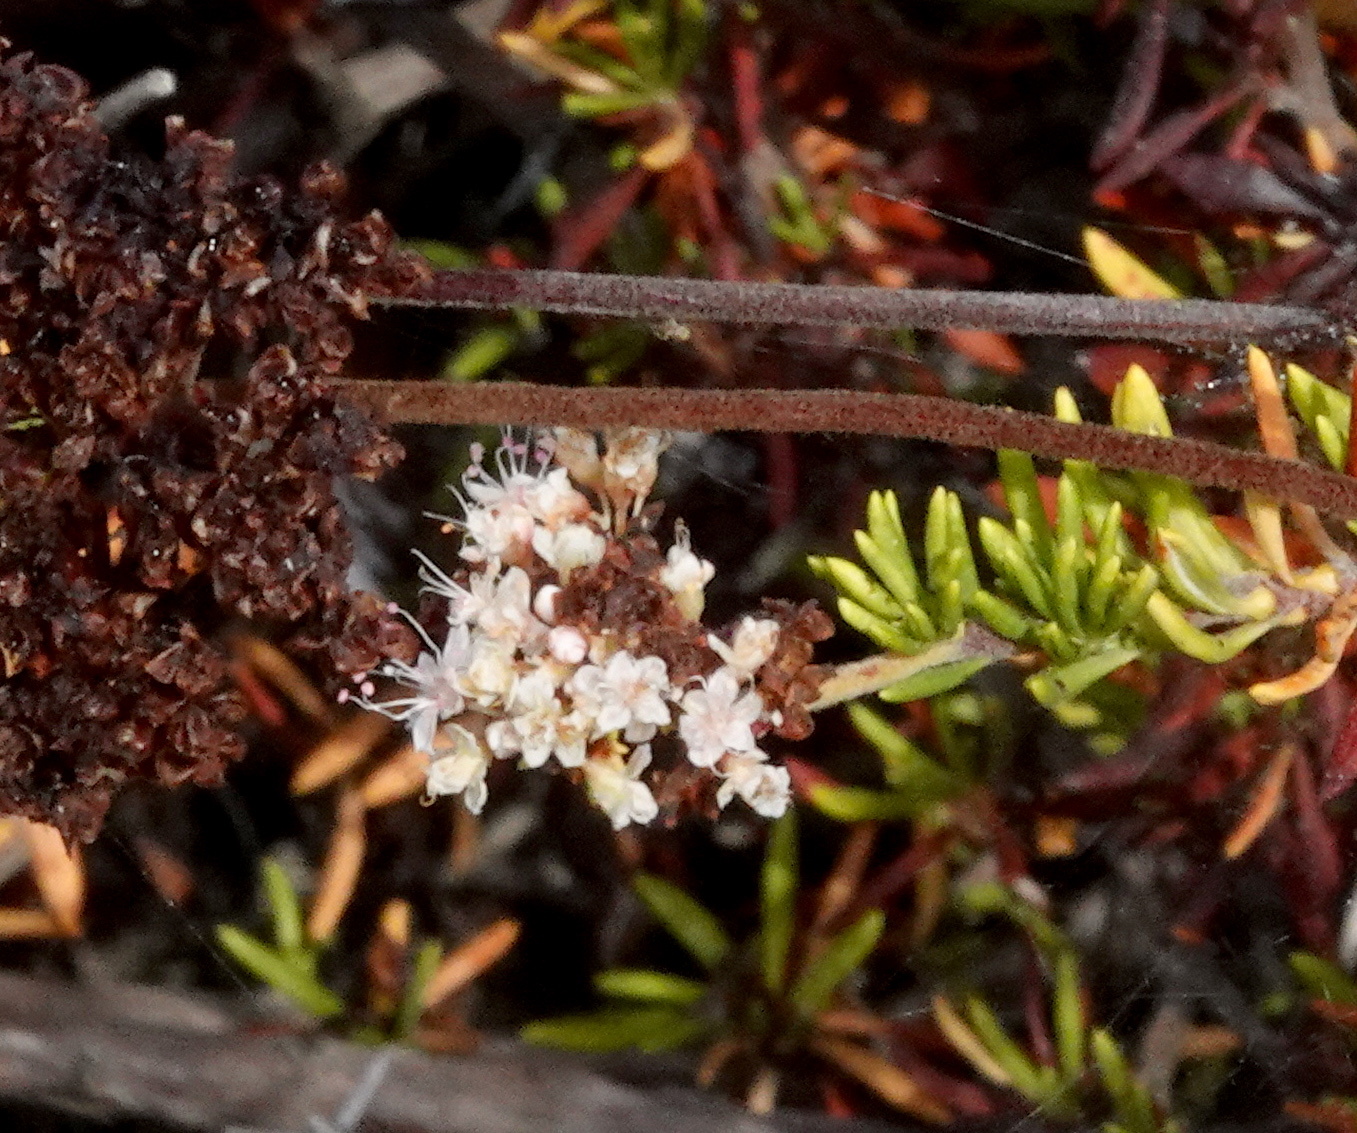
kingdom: Plantae
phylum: Tracheophyta
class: Magnoliopsida
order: Caryophyllales
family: Polygonaceae
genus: Eriogonum
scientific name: Eriogonum fasciculatum
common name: California wild buckwheat
